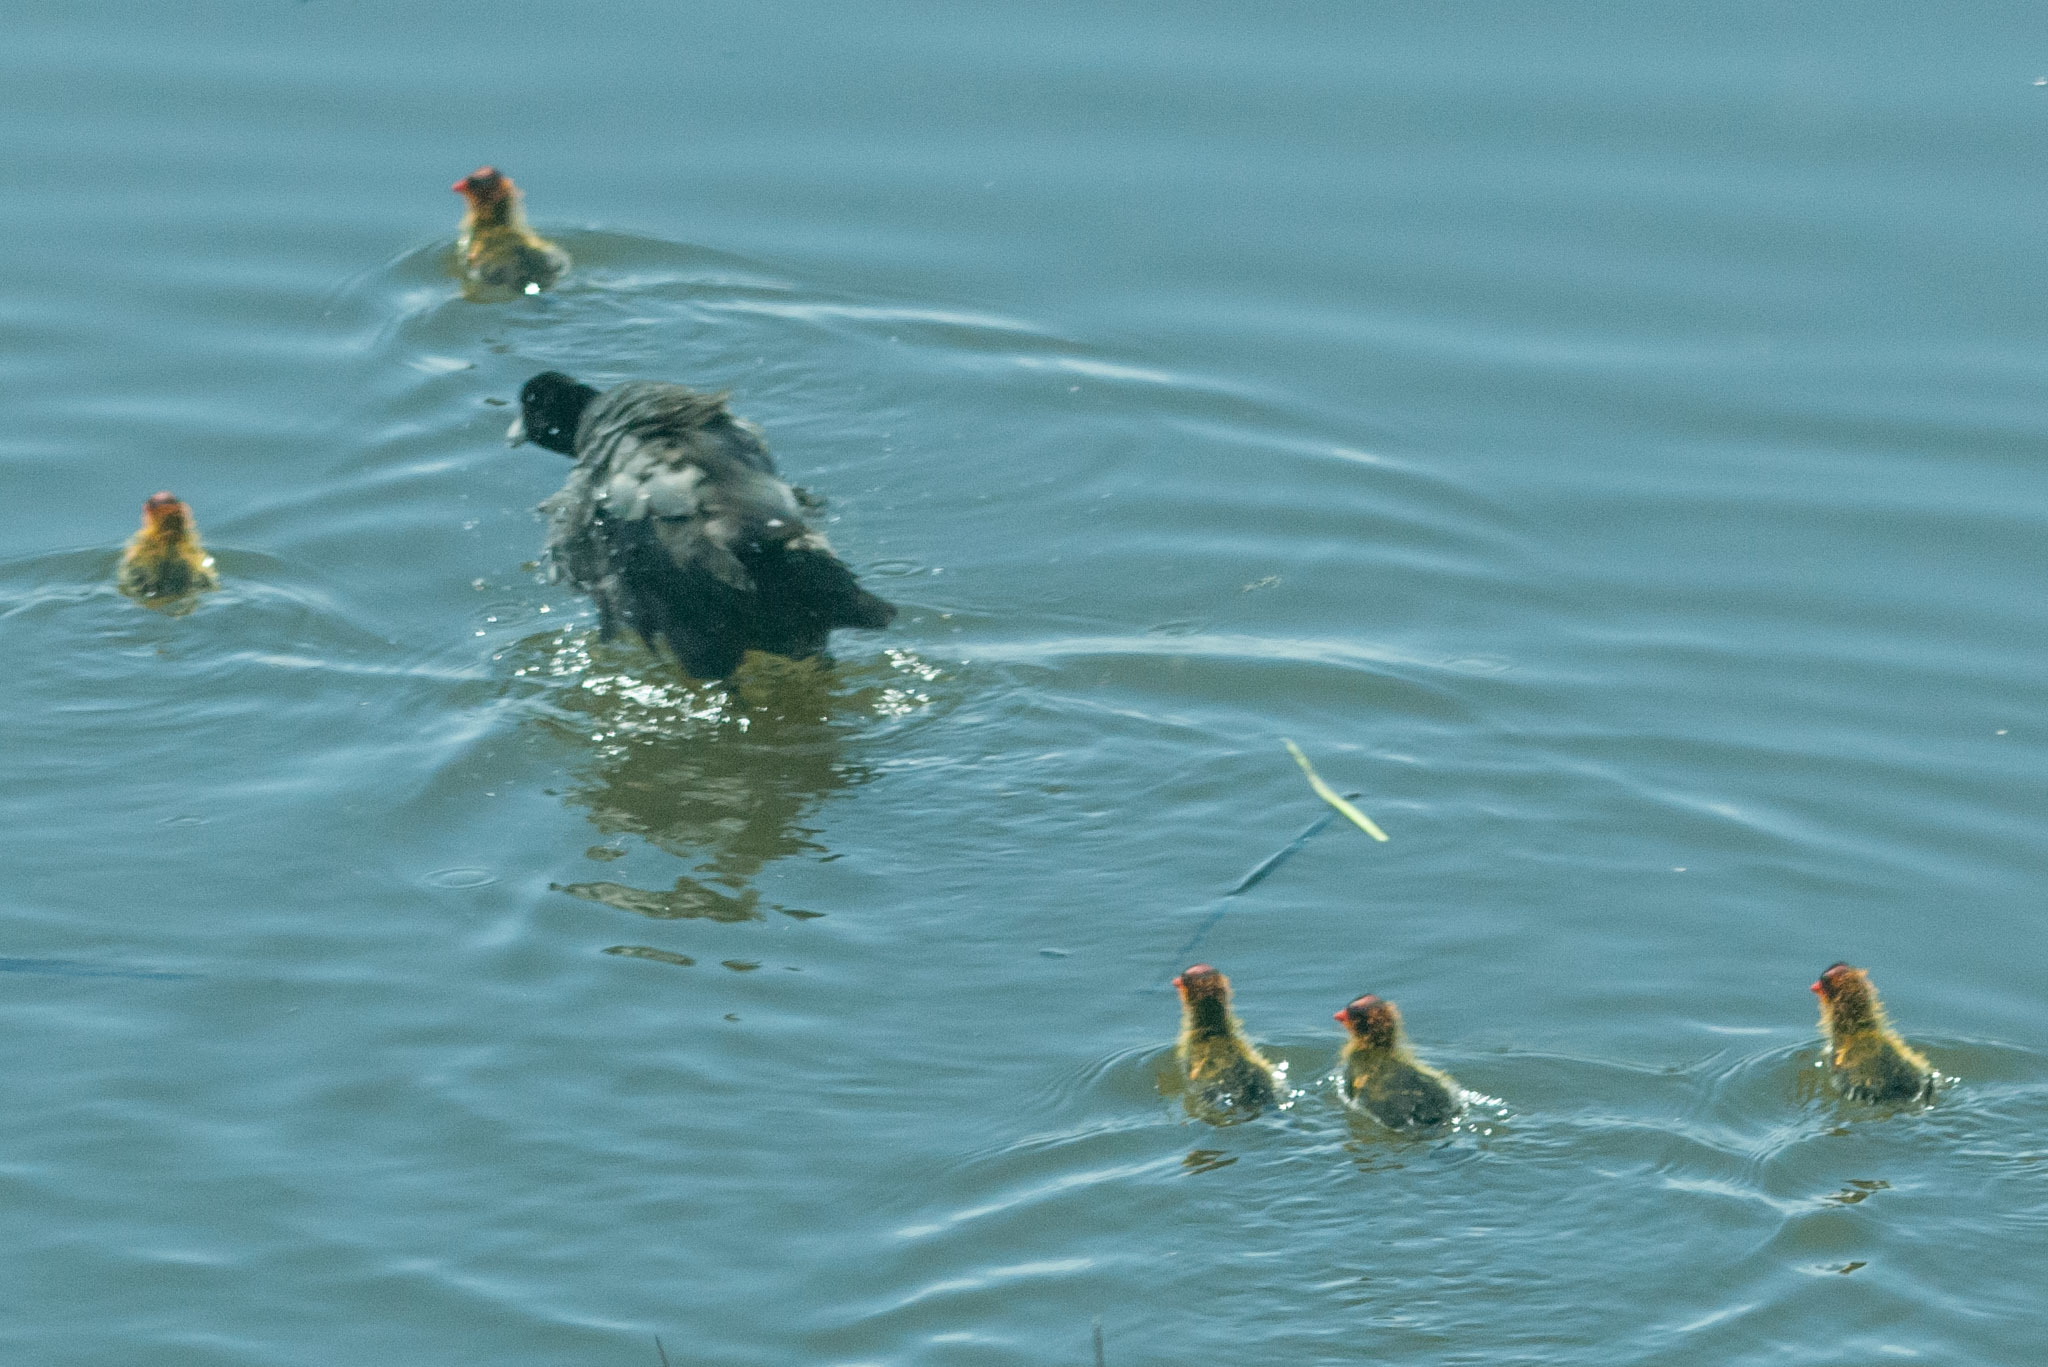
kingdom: Animalia
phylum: Chordata
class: Aves
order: Gruiformes
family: Rallidae
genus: Fulica
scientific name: Fulica americana
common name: American coot
